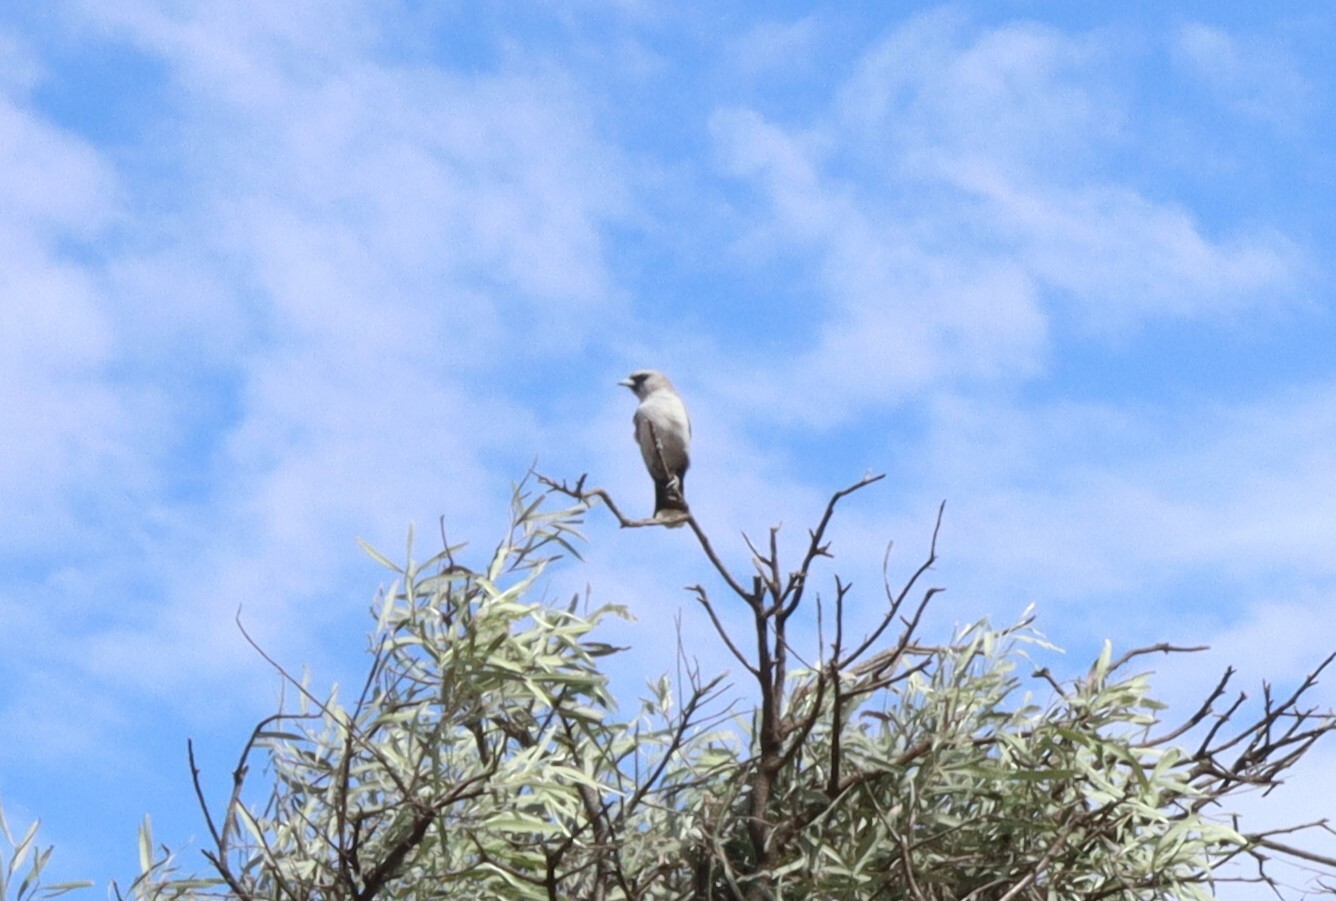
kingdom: Animalia
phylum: Chordata
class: Aves
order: Passeriformes
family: Artamidae
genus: Artamus
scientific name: Artamus cinereus
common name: Black-faced woodswallow
